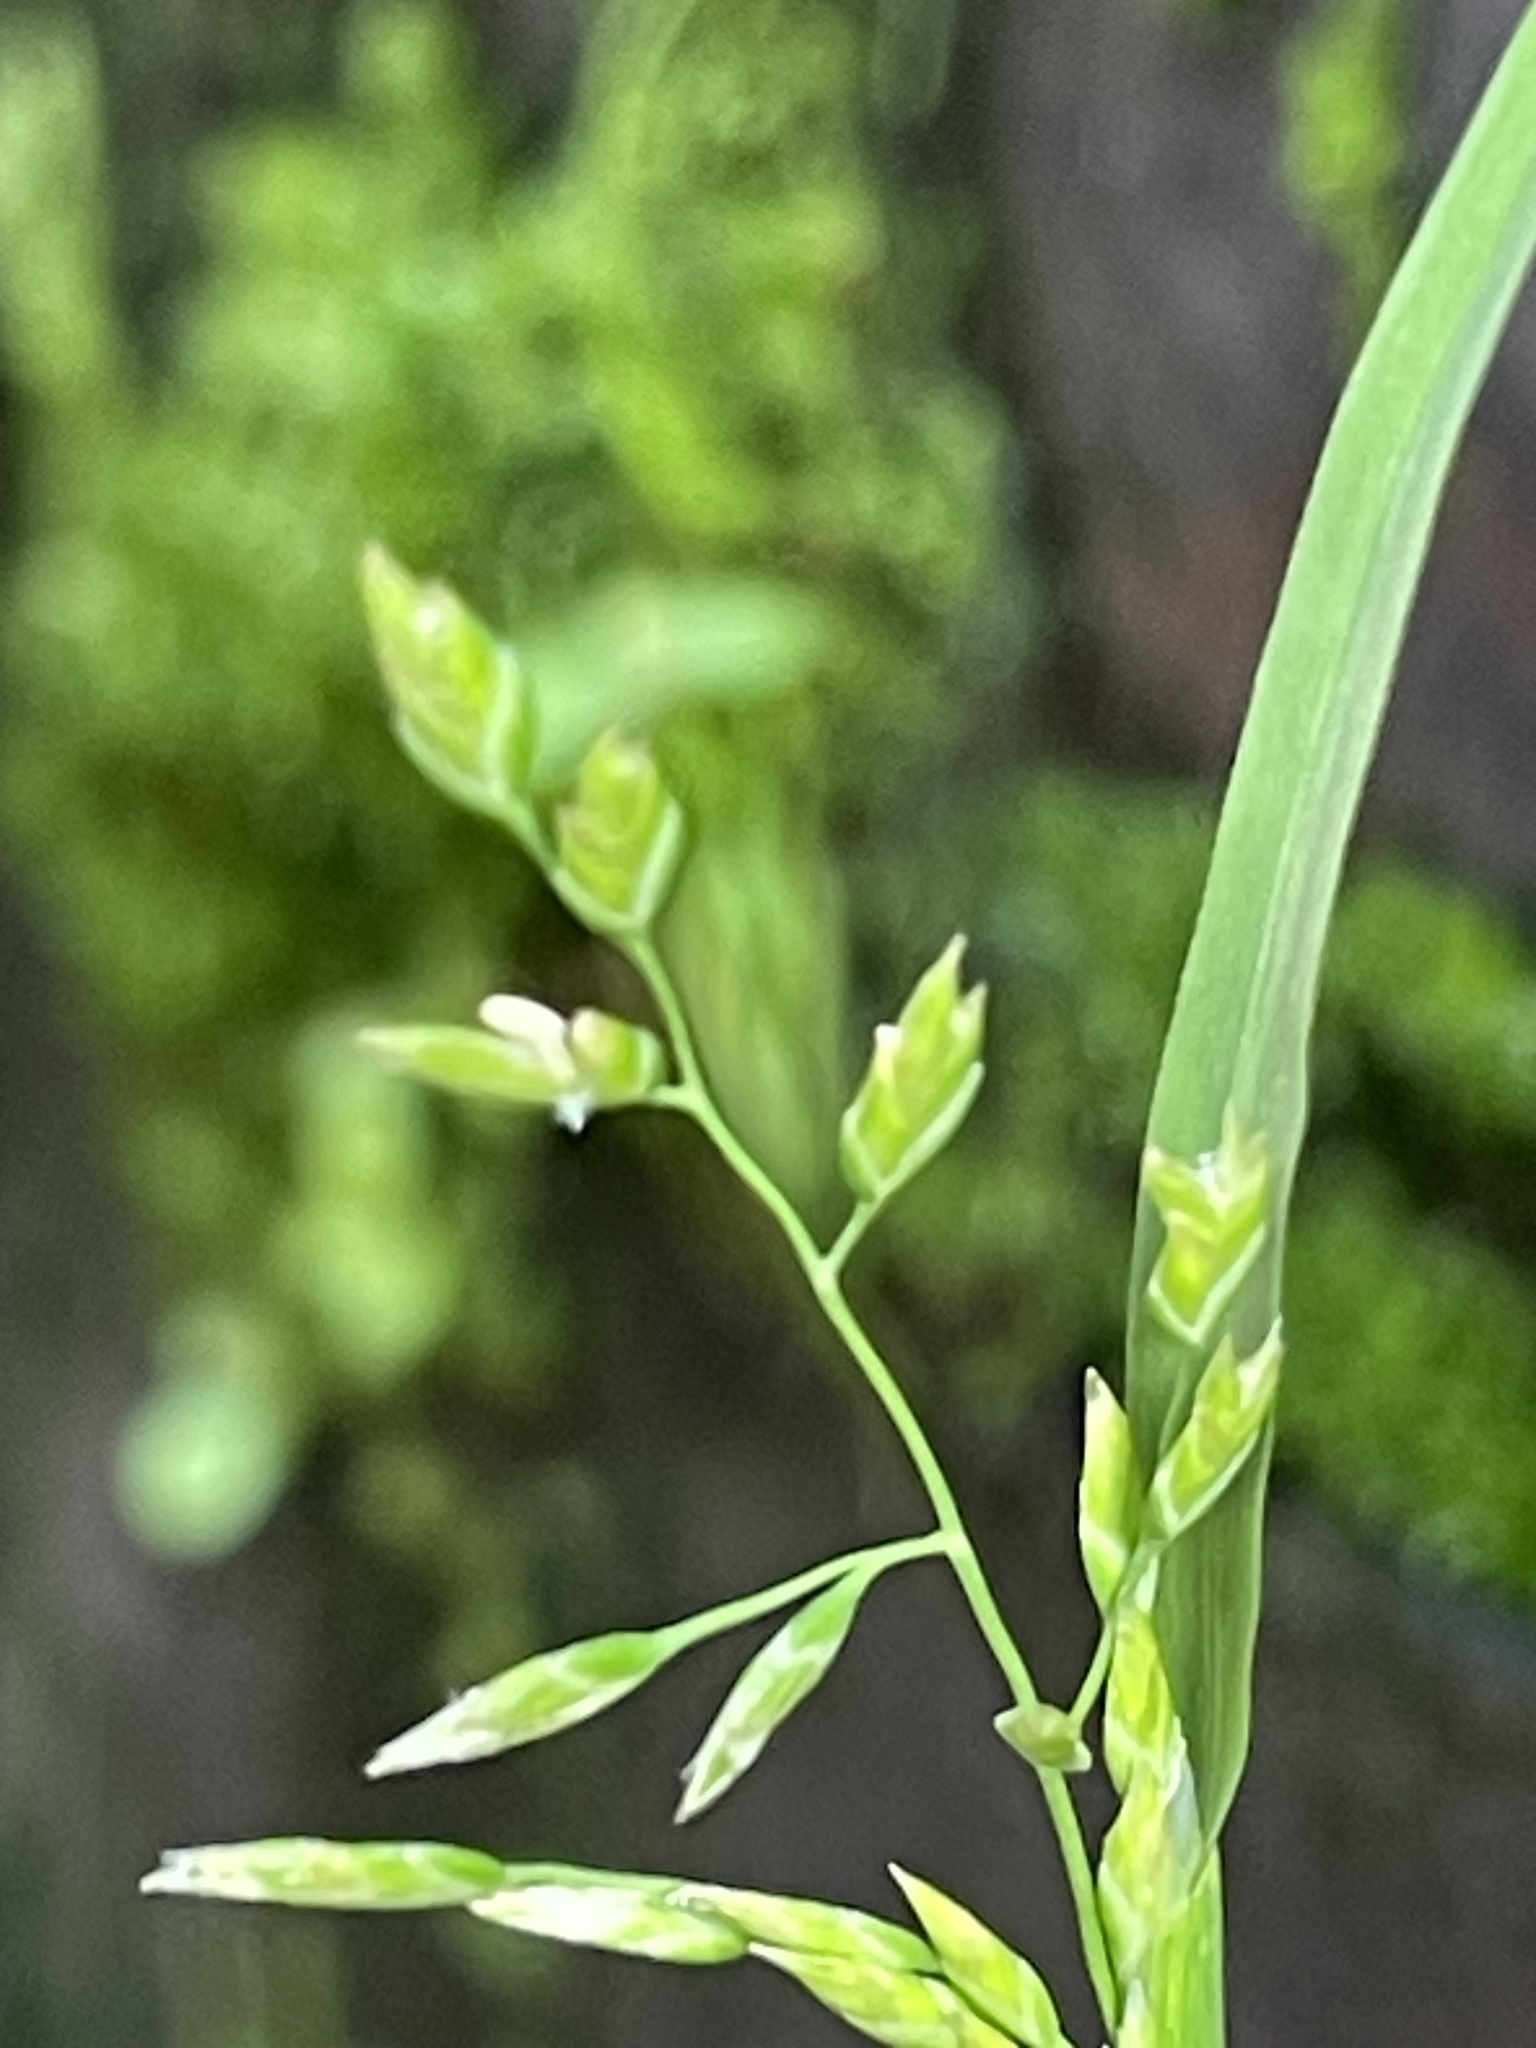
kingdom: Plantae
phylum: Tracheophyta
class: Liliopsida
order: Poales
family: Poaceae
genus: Poa
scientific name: Poa annua
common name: Annual bluegrass
